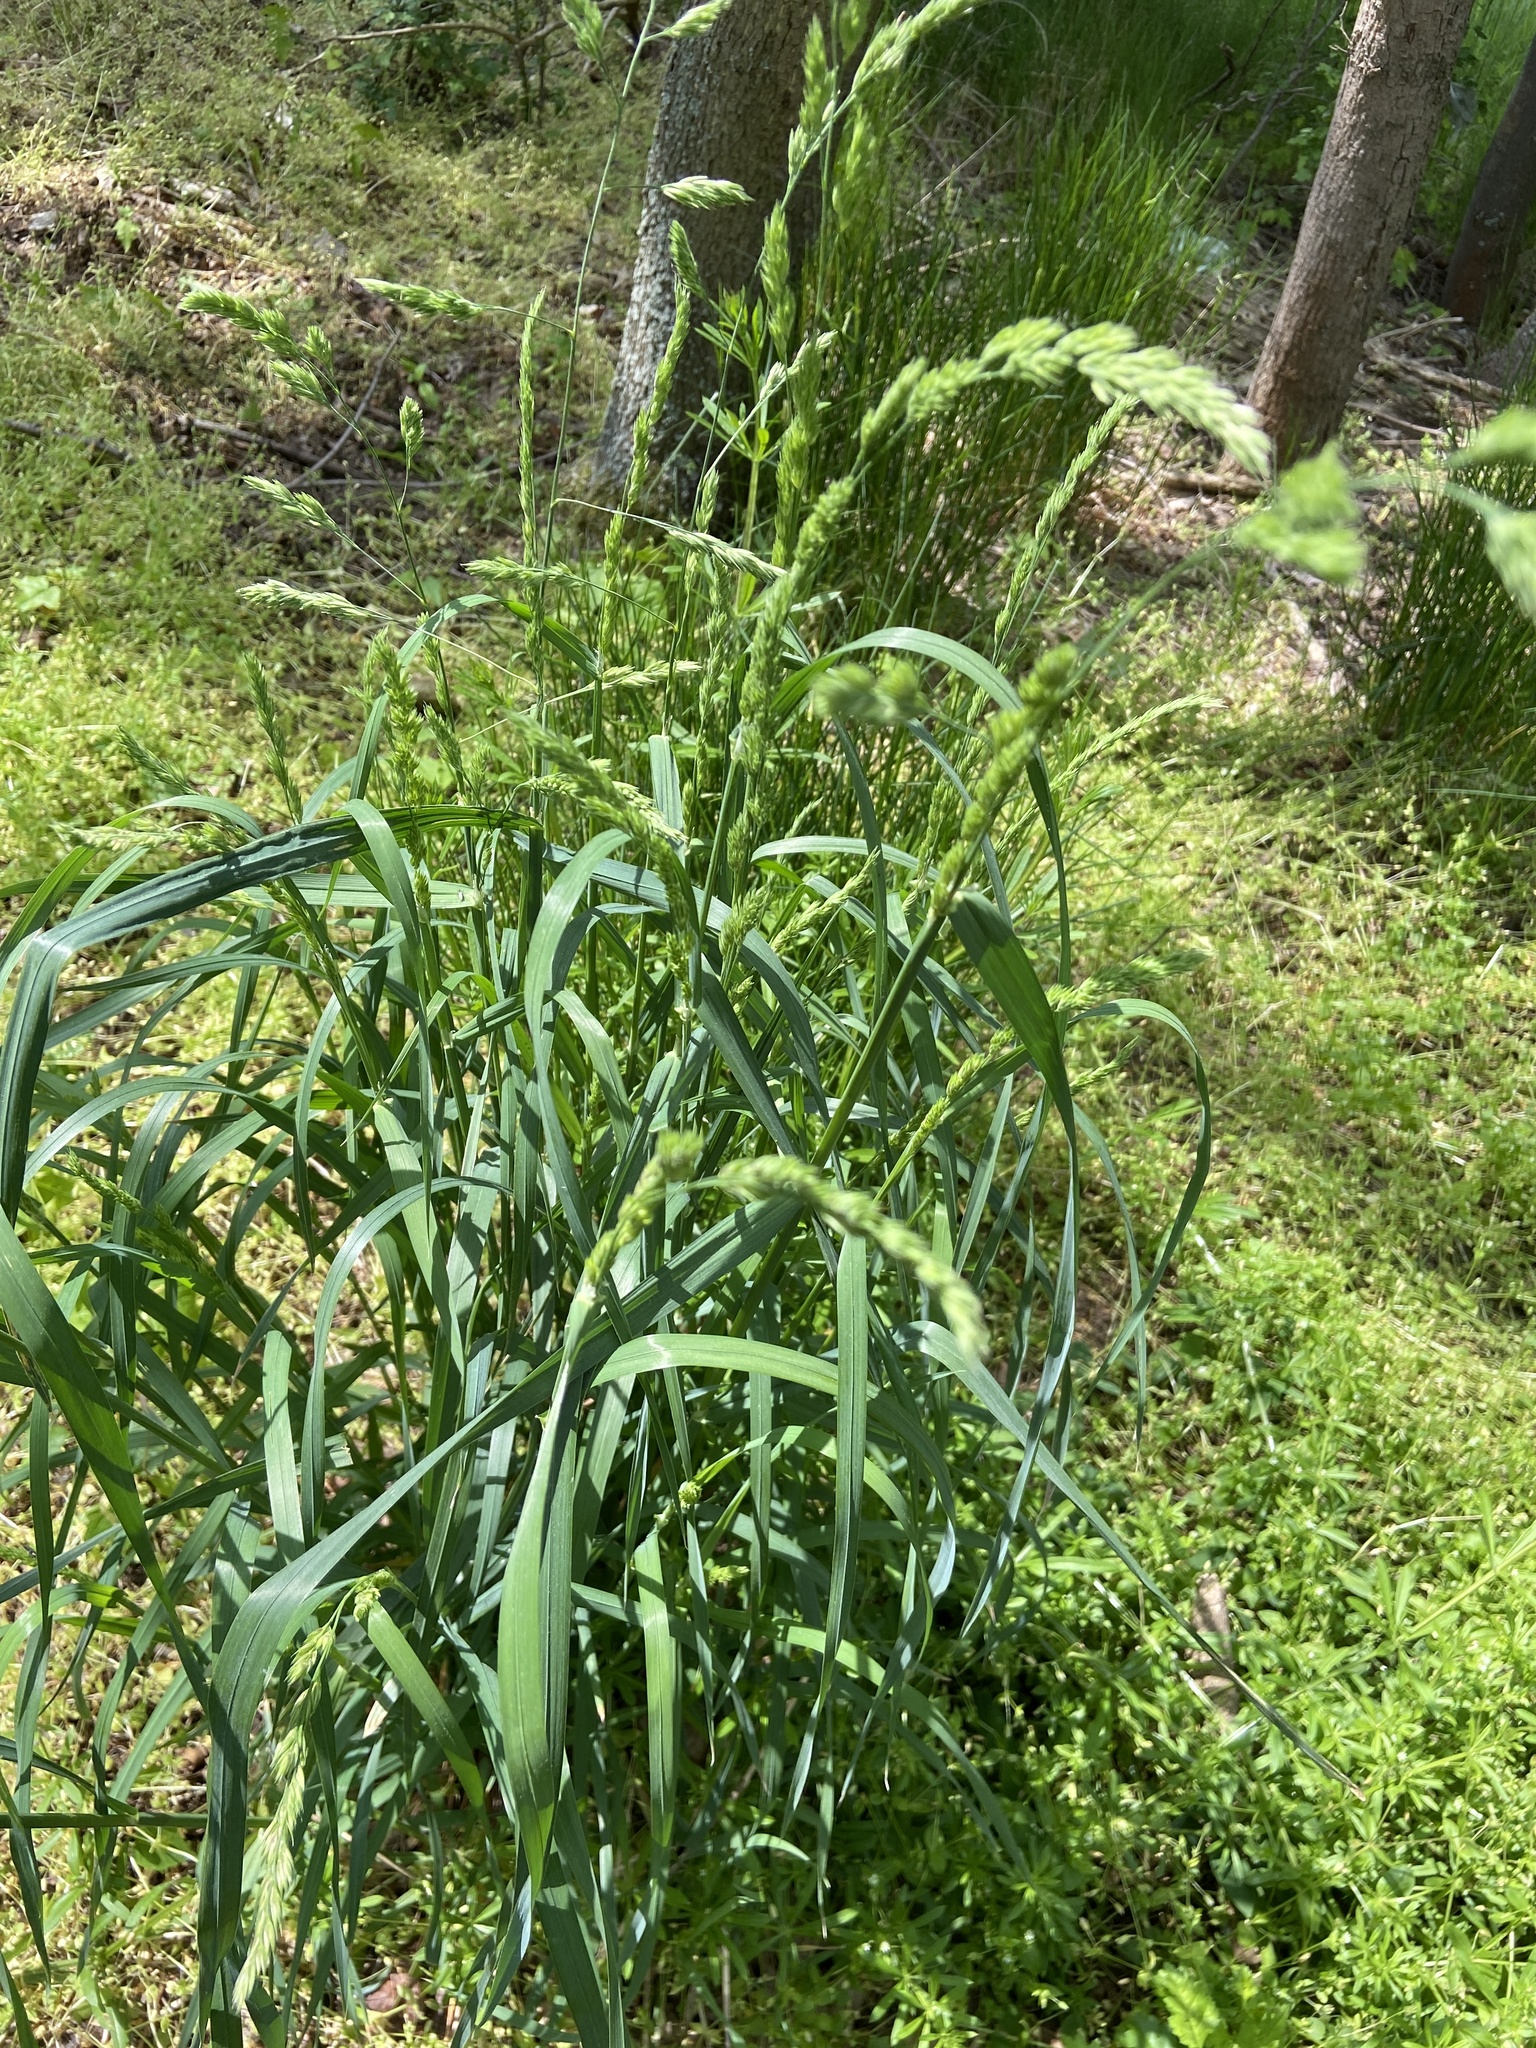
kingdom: Plantae
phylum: Tracheophyta
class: Liliopsida
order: Poales
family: Poaceae
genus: Dactylis
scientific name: Dactylis glomerata
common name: Orchardgrass
